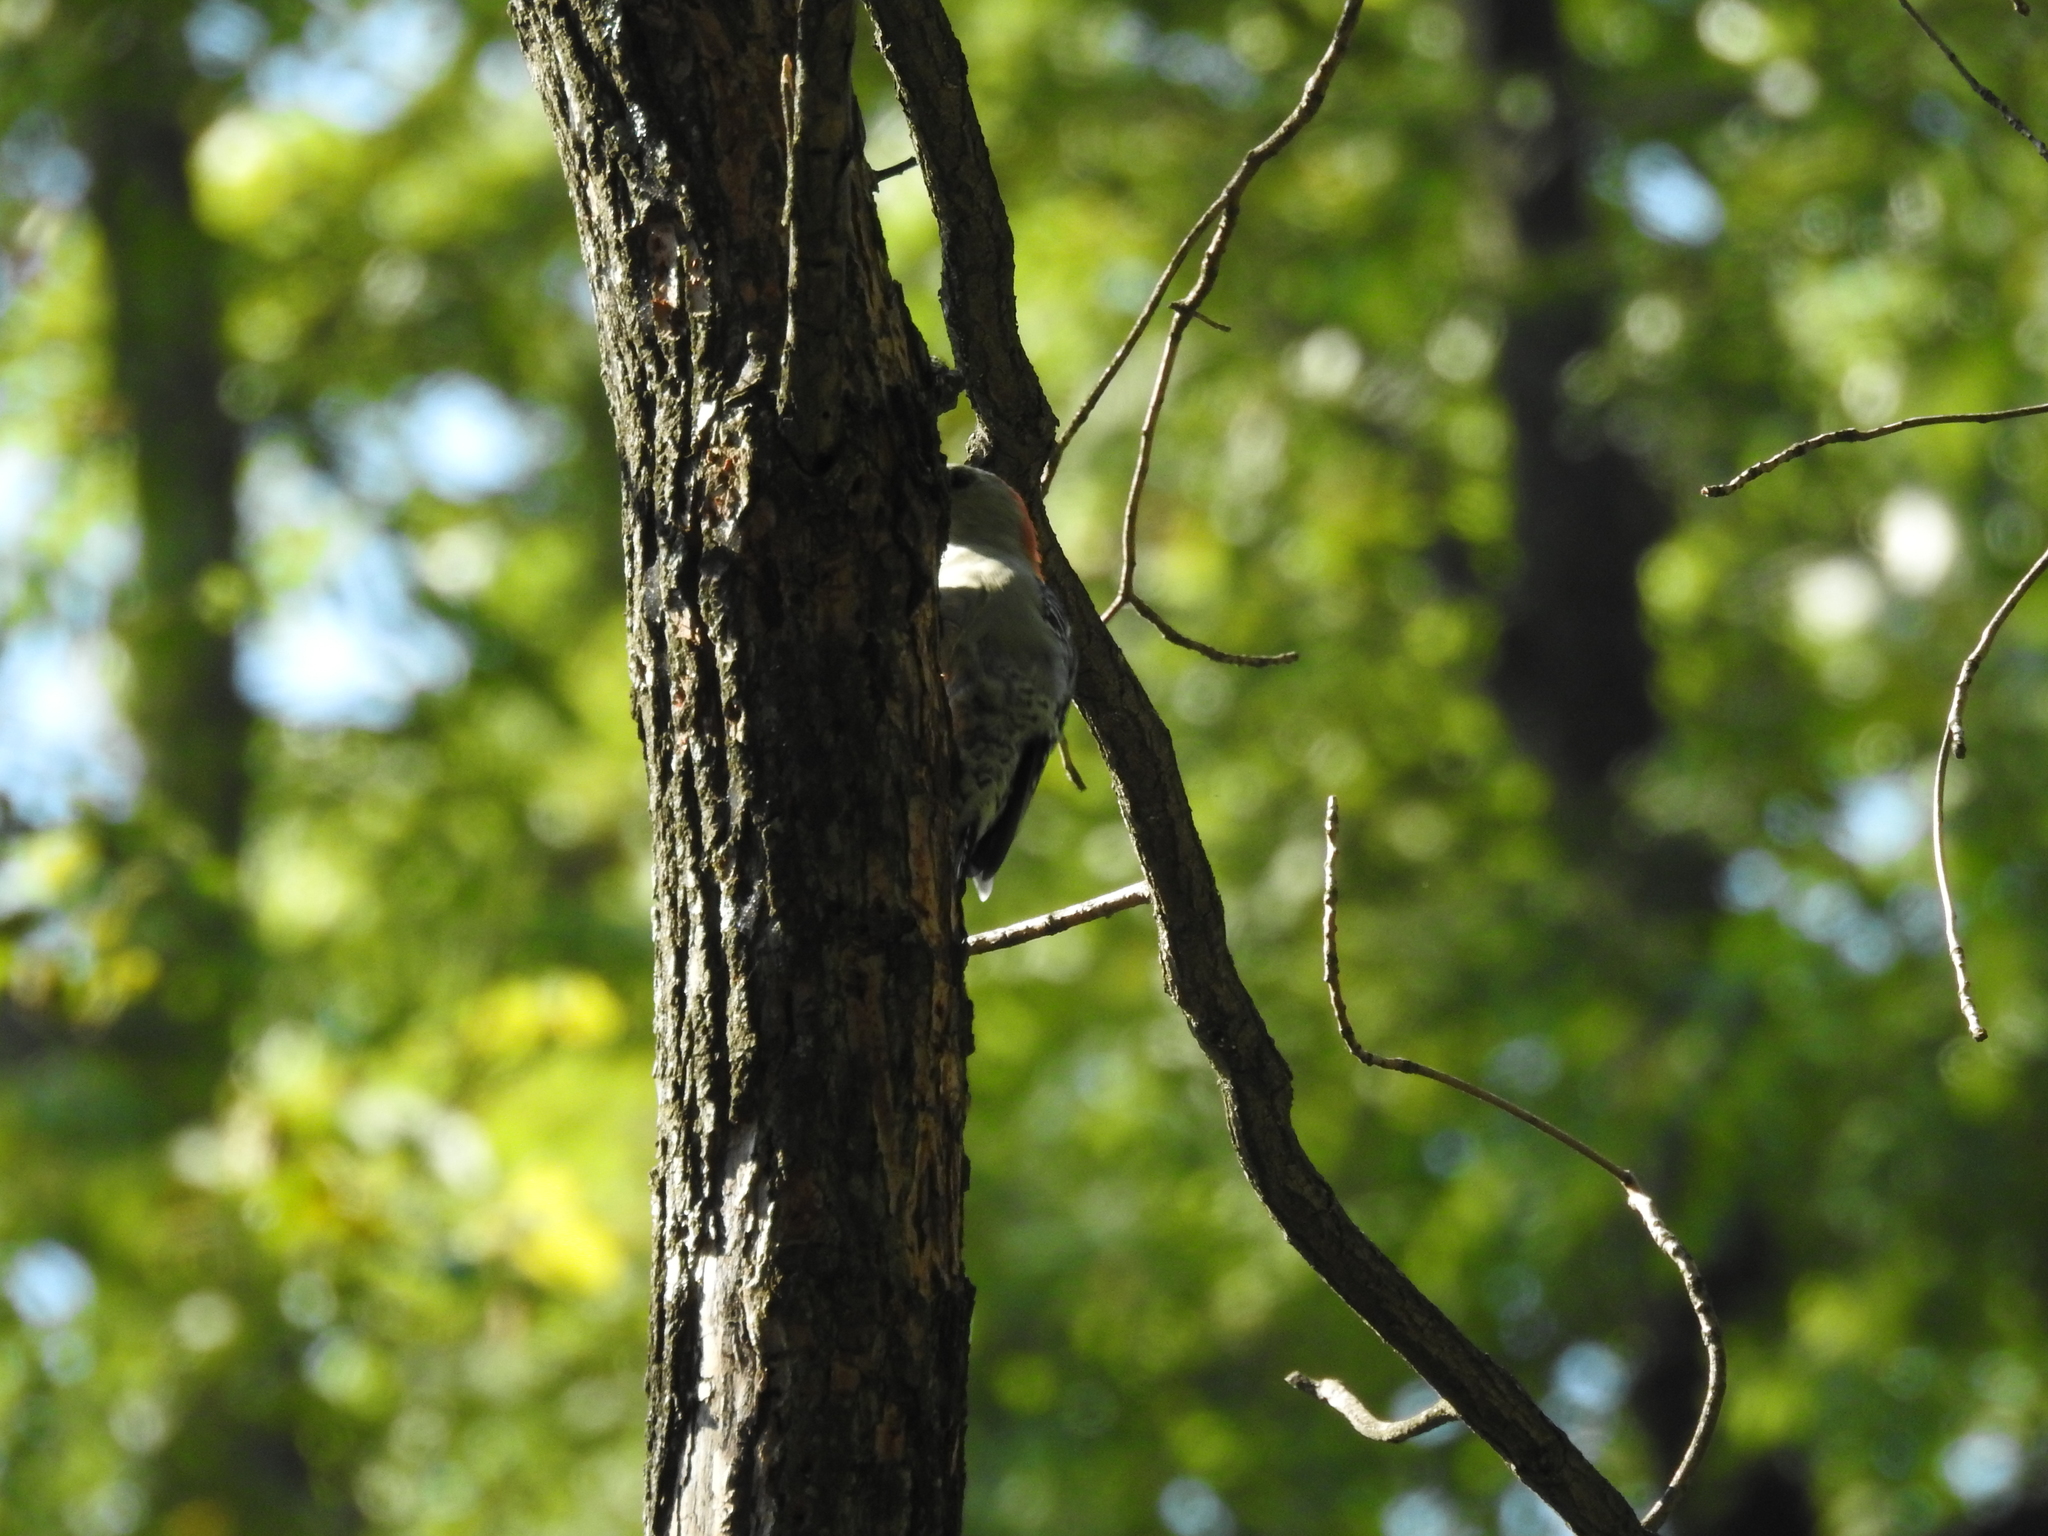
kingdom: Animalia
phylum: Chordata
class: Aves
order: Piciformes
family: Picidae
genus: Melanerpes
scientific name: Melanerpes carolinus
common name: Red-bellied woodpecker
